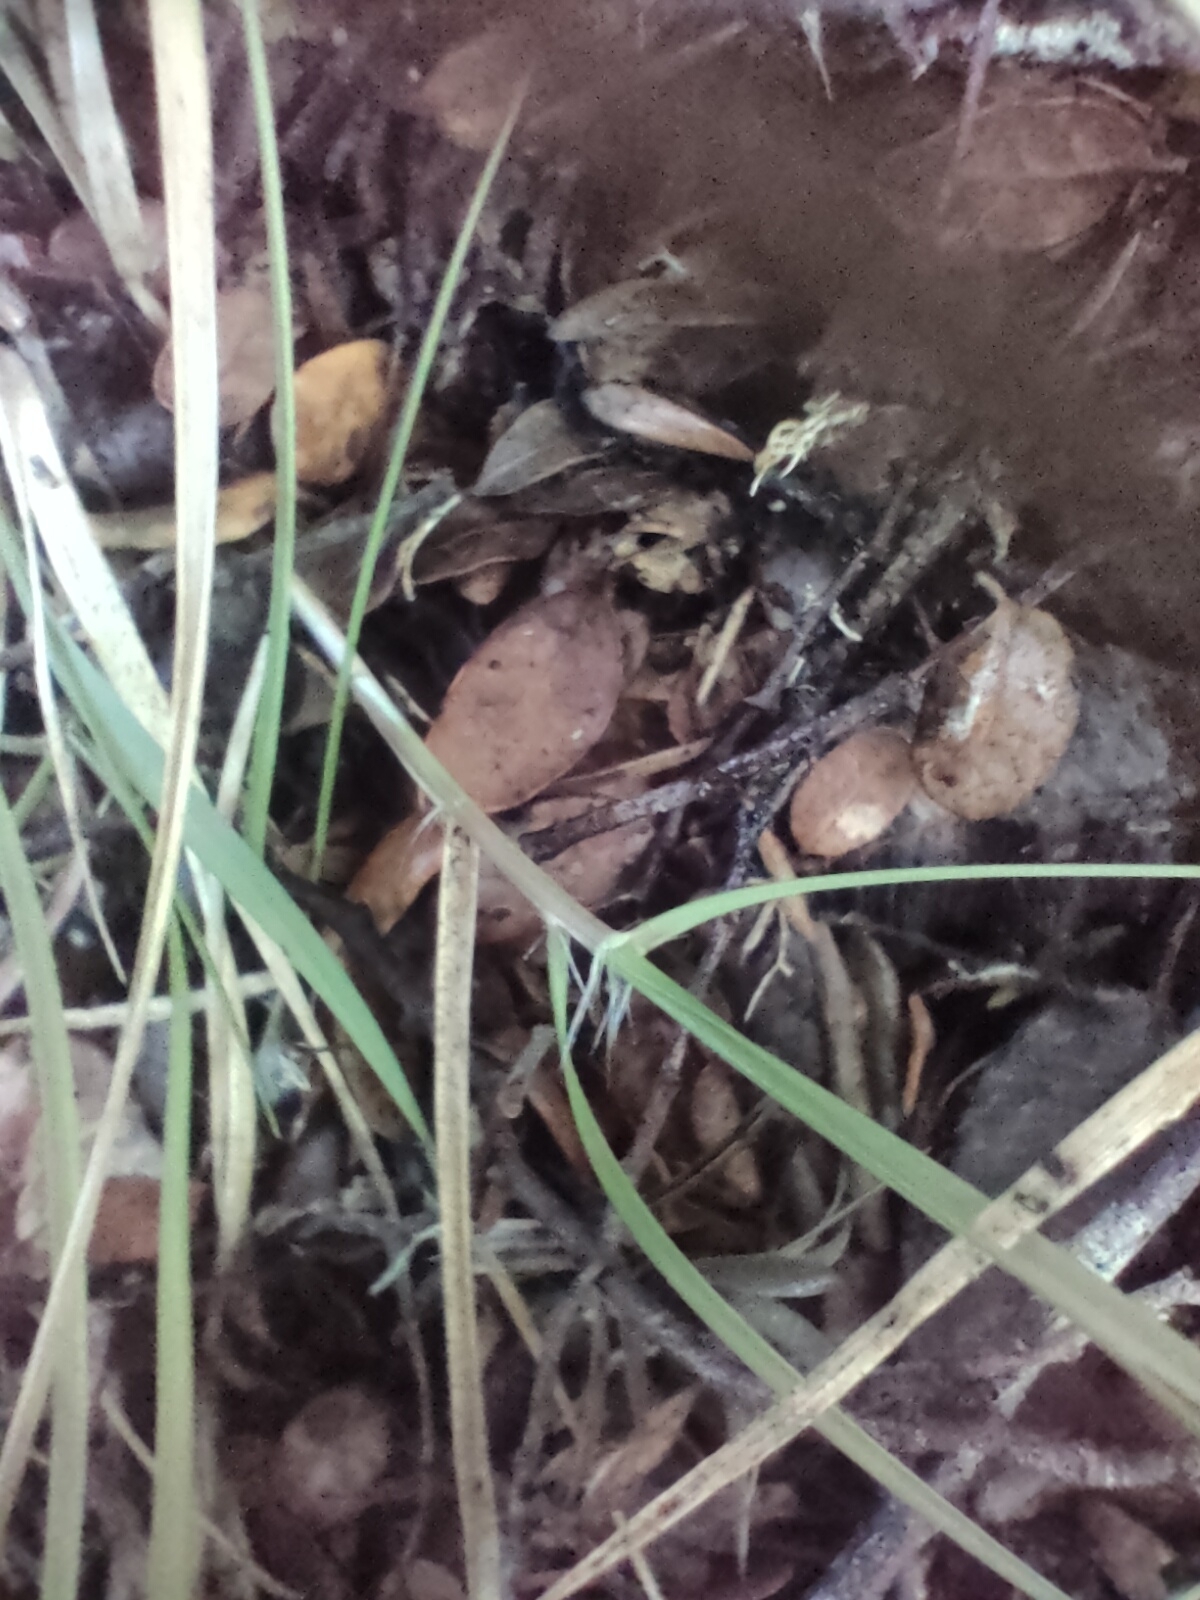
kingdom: Plantae
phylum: Tracheophyta
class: Polypodiopsida
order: Polypodiales
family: Blechnaceae
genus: Parablechnum
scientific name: Parablechnum procerum
